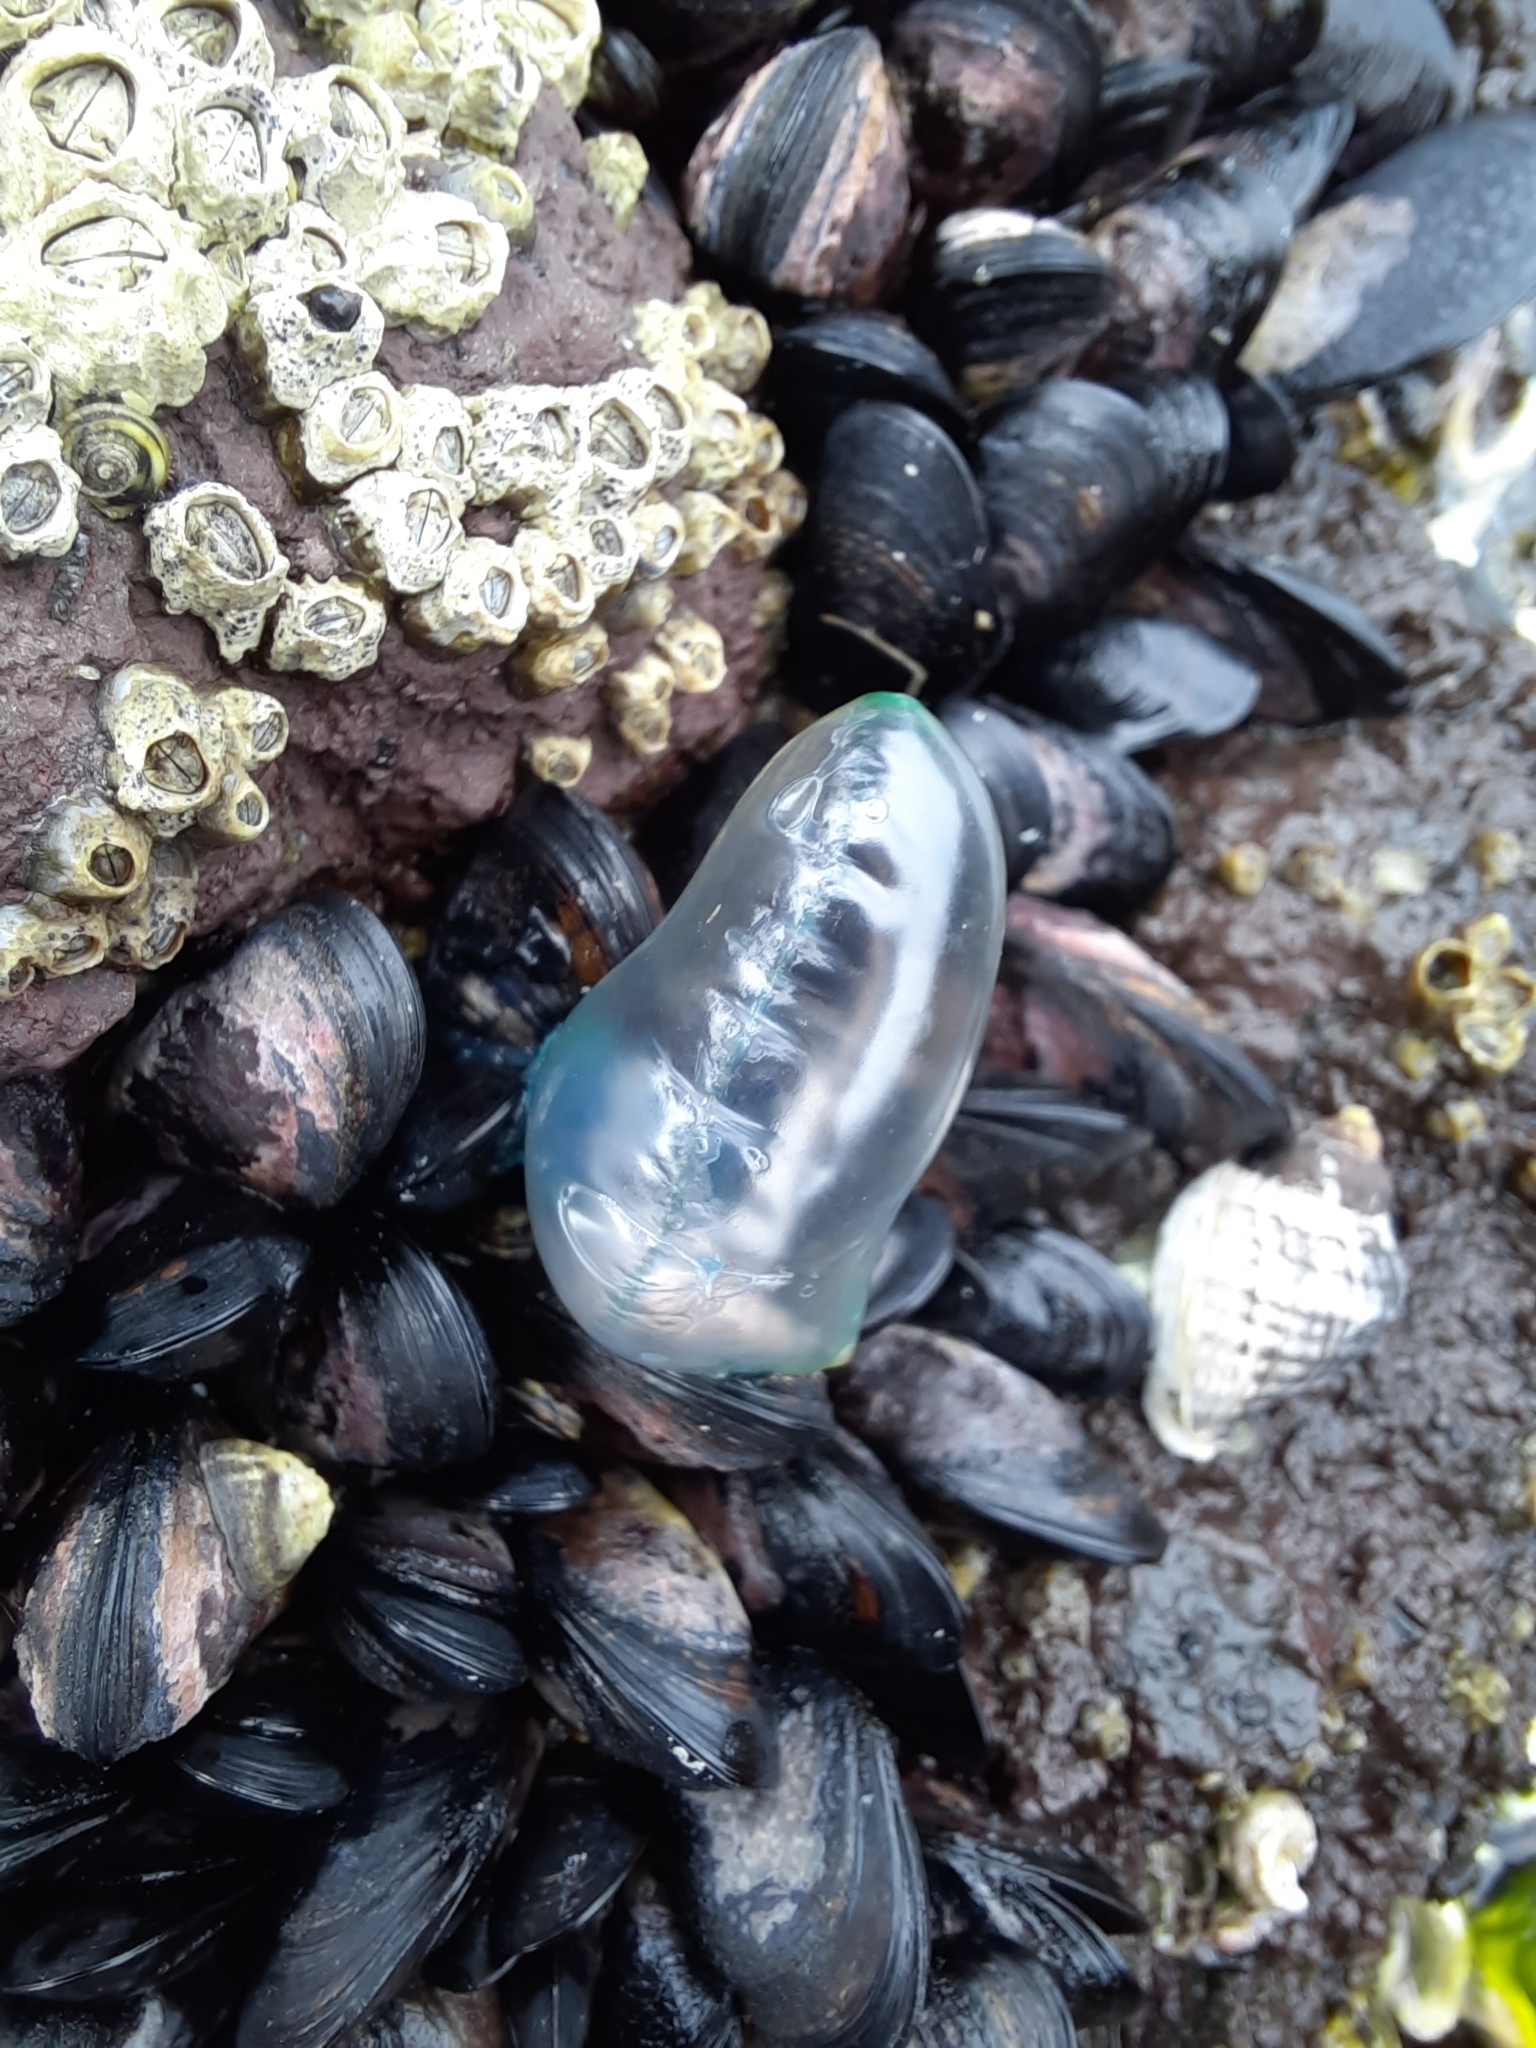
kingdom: Animalia
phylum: Cnidaria
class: Hydrozoa
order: Siphonophorae
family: Physaliidae
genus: Physalia
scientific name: Physalia physalis
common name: Portuguese man-of-war
